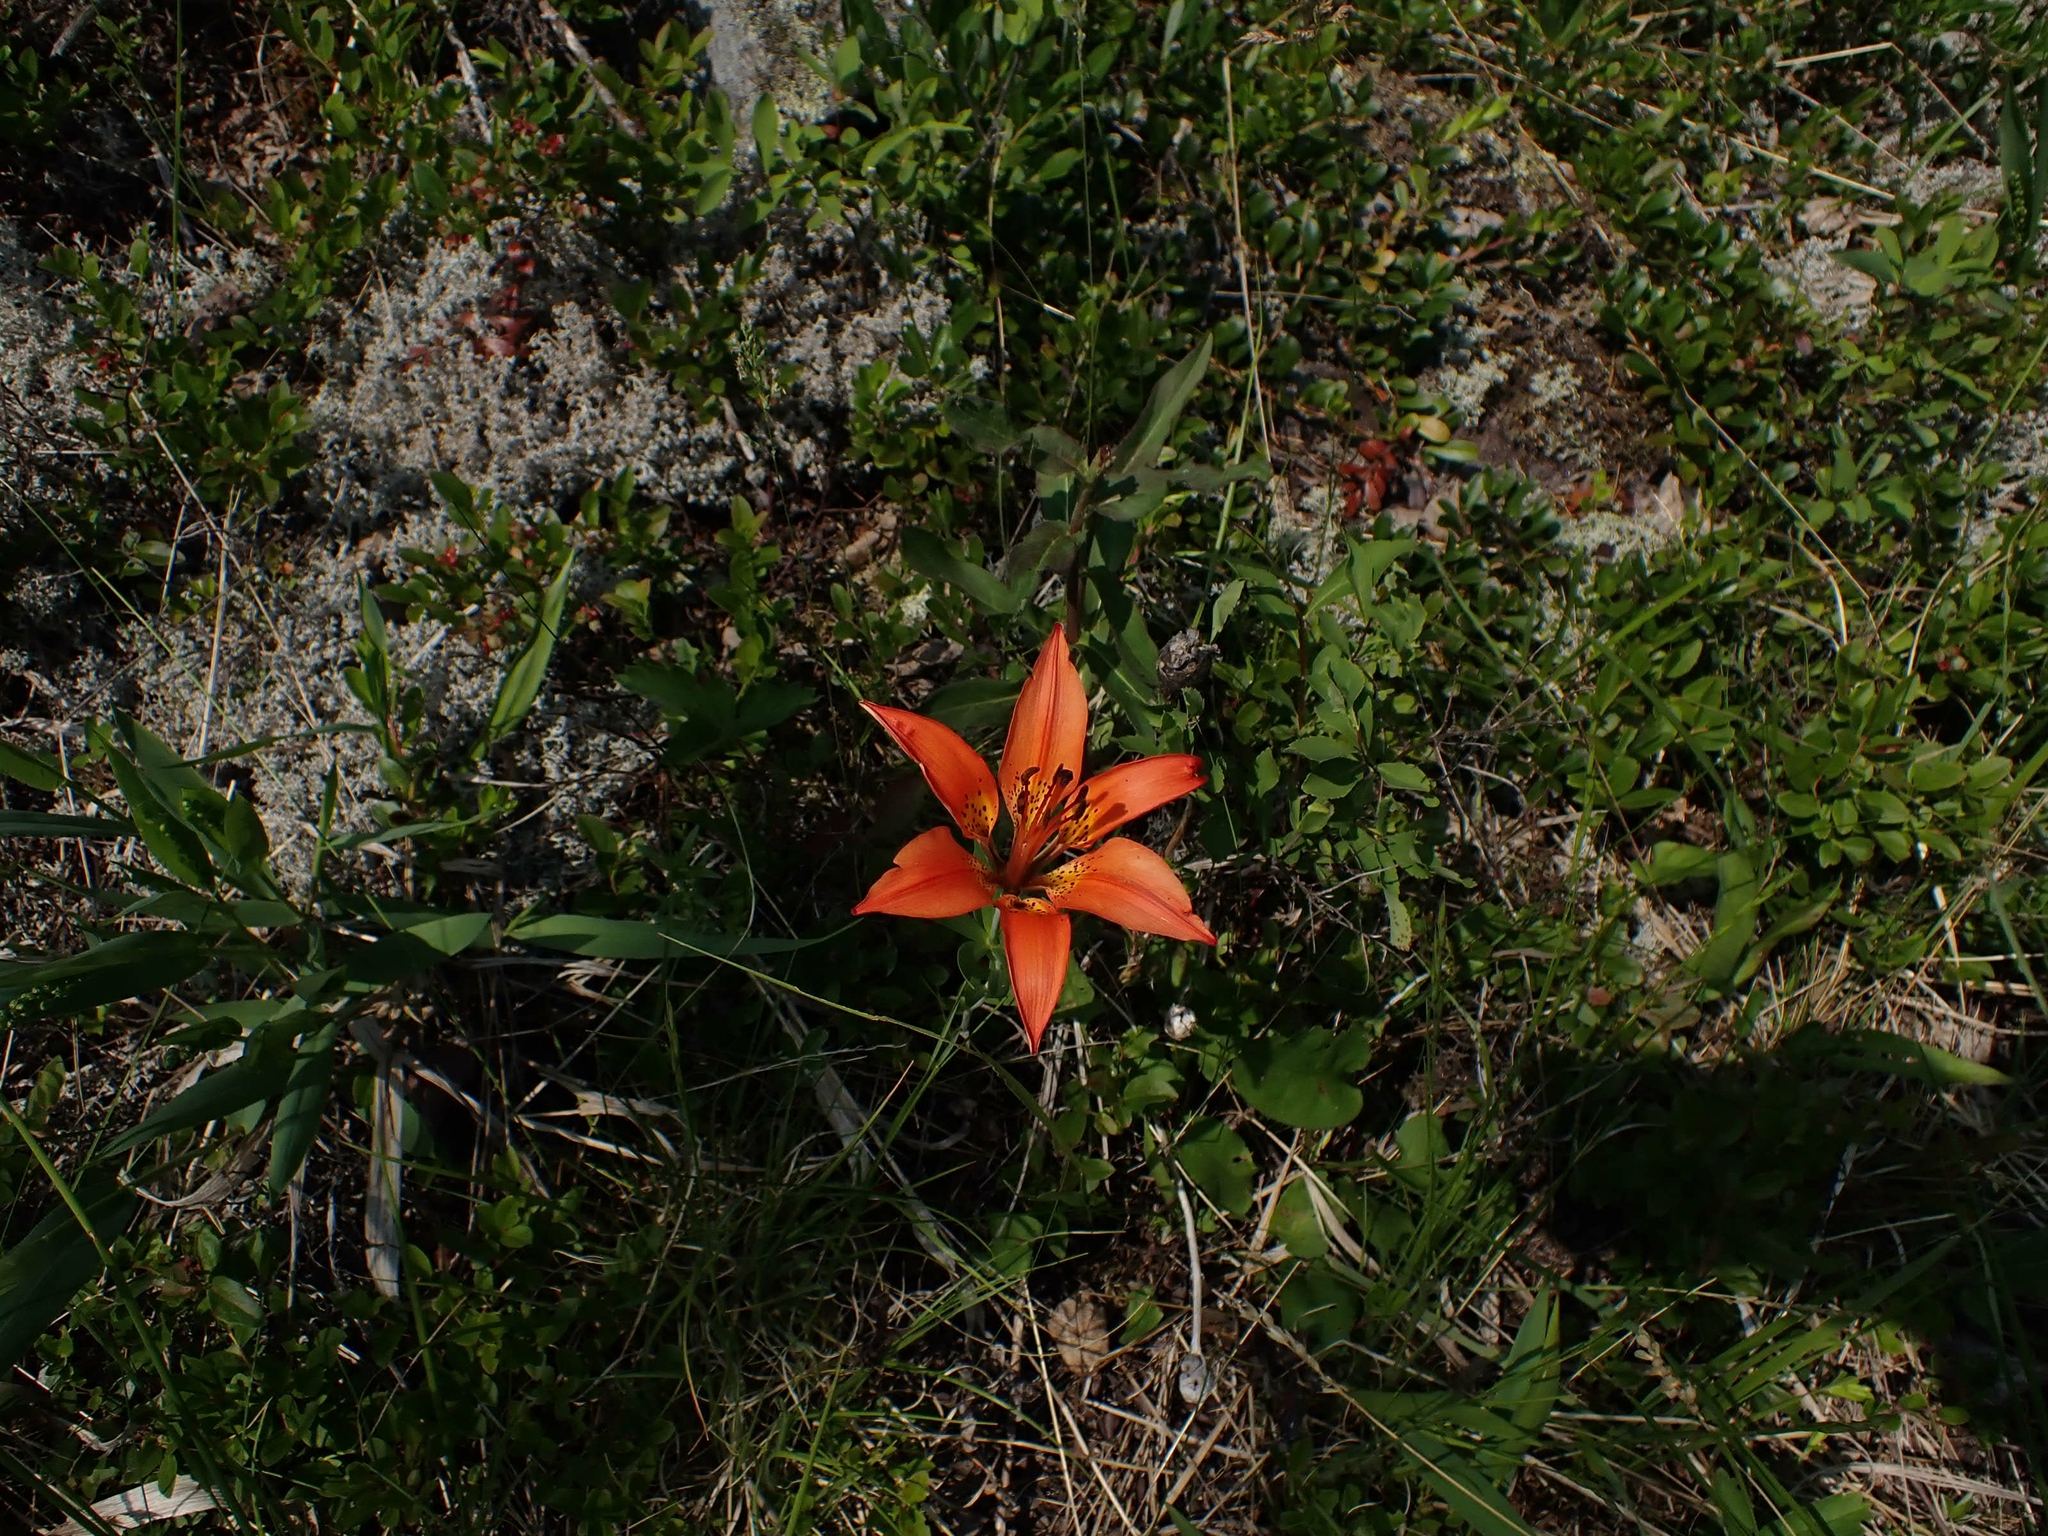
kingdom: Plantae
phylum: Tracheophyta
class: Liliopsida
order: Liliales
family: Liliaceae
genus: Lilium
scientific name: Lilium philadelphicum
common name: Red lily
